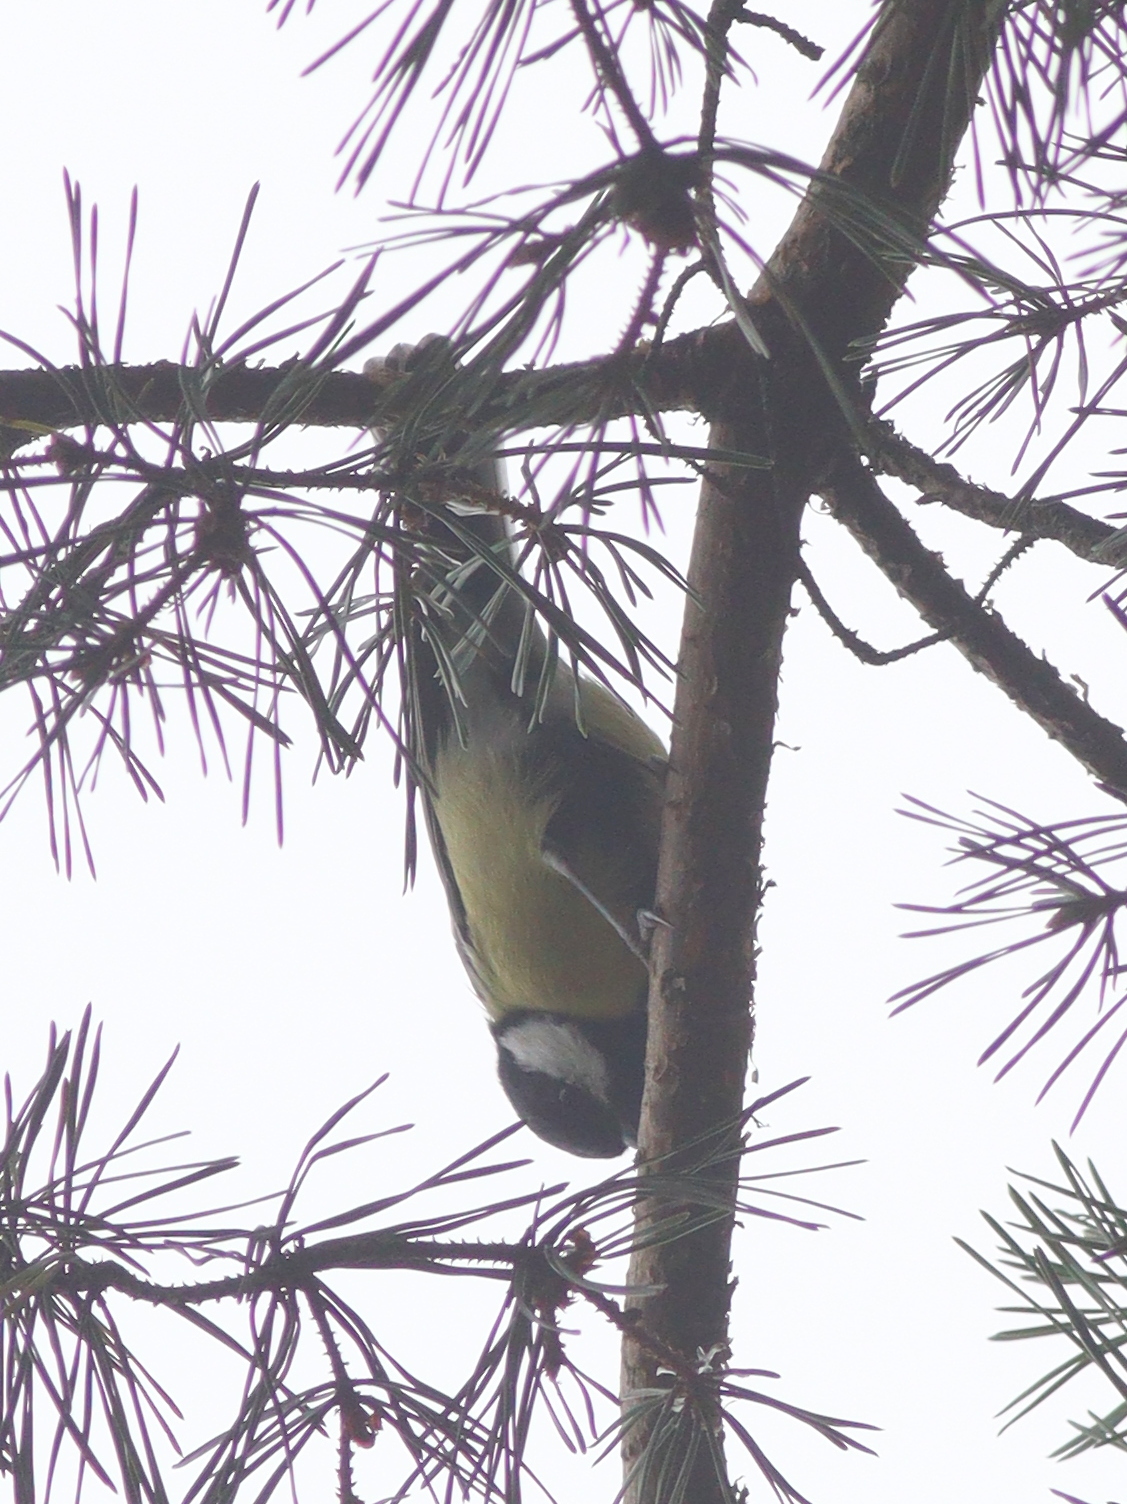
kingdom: Animalia
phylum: Chordata
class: Aves
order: Passeriformes
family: Paridae
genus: Parus
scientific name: Parus major
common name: Great tit
